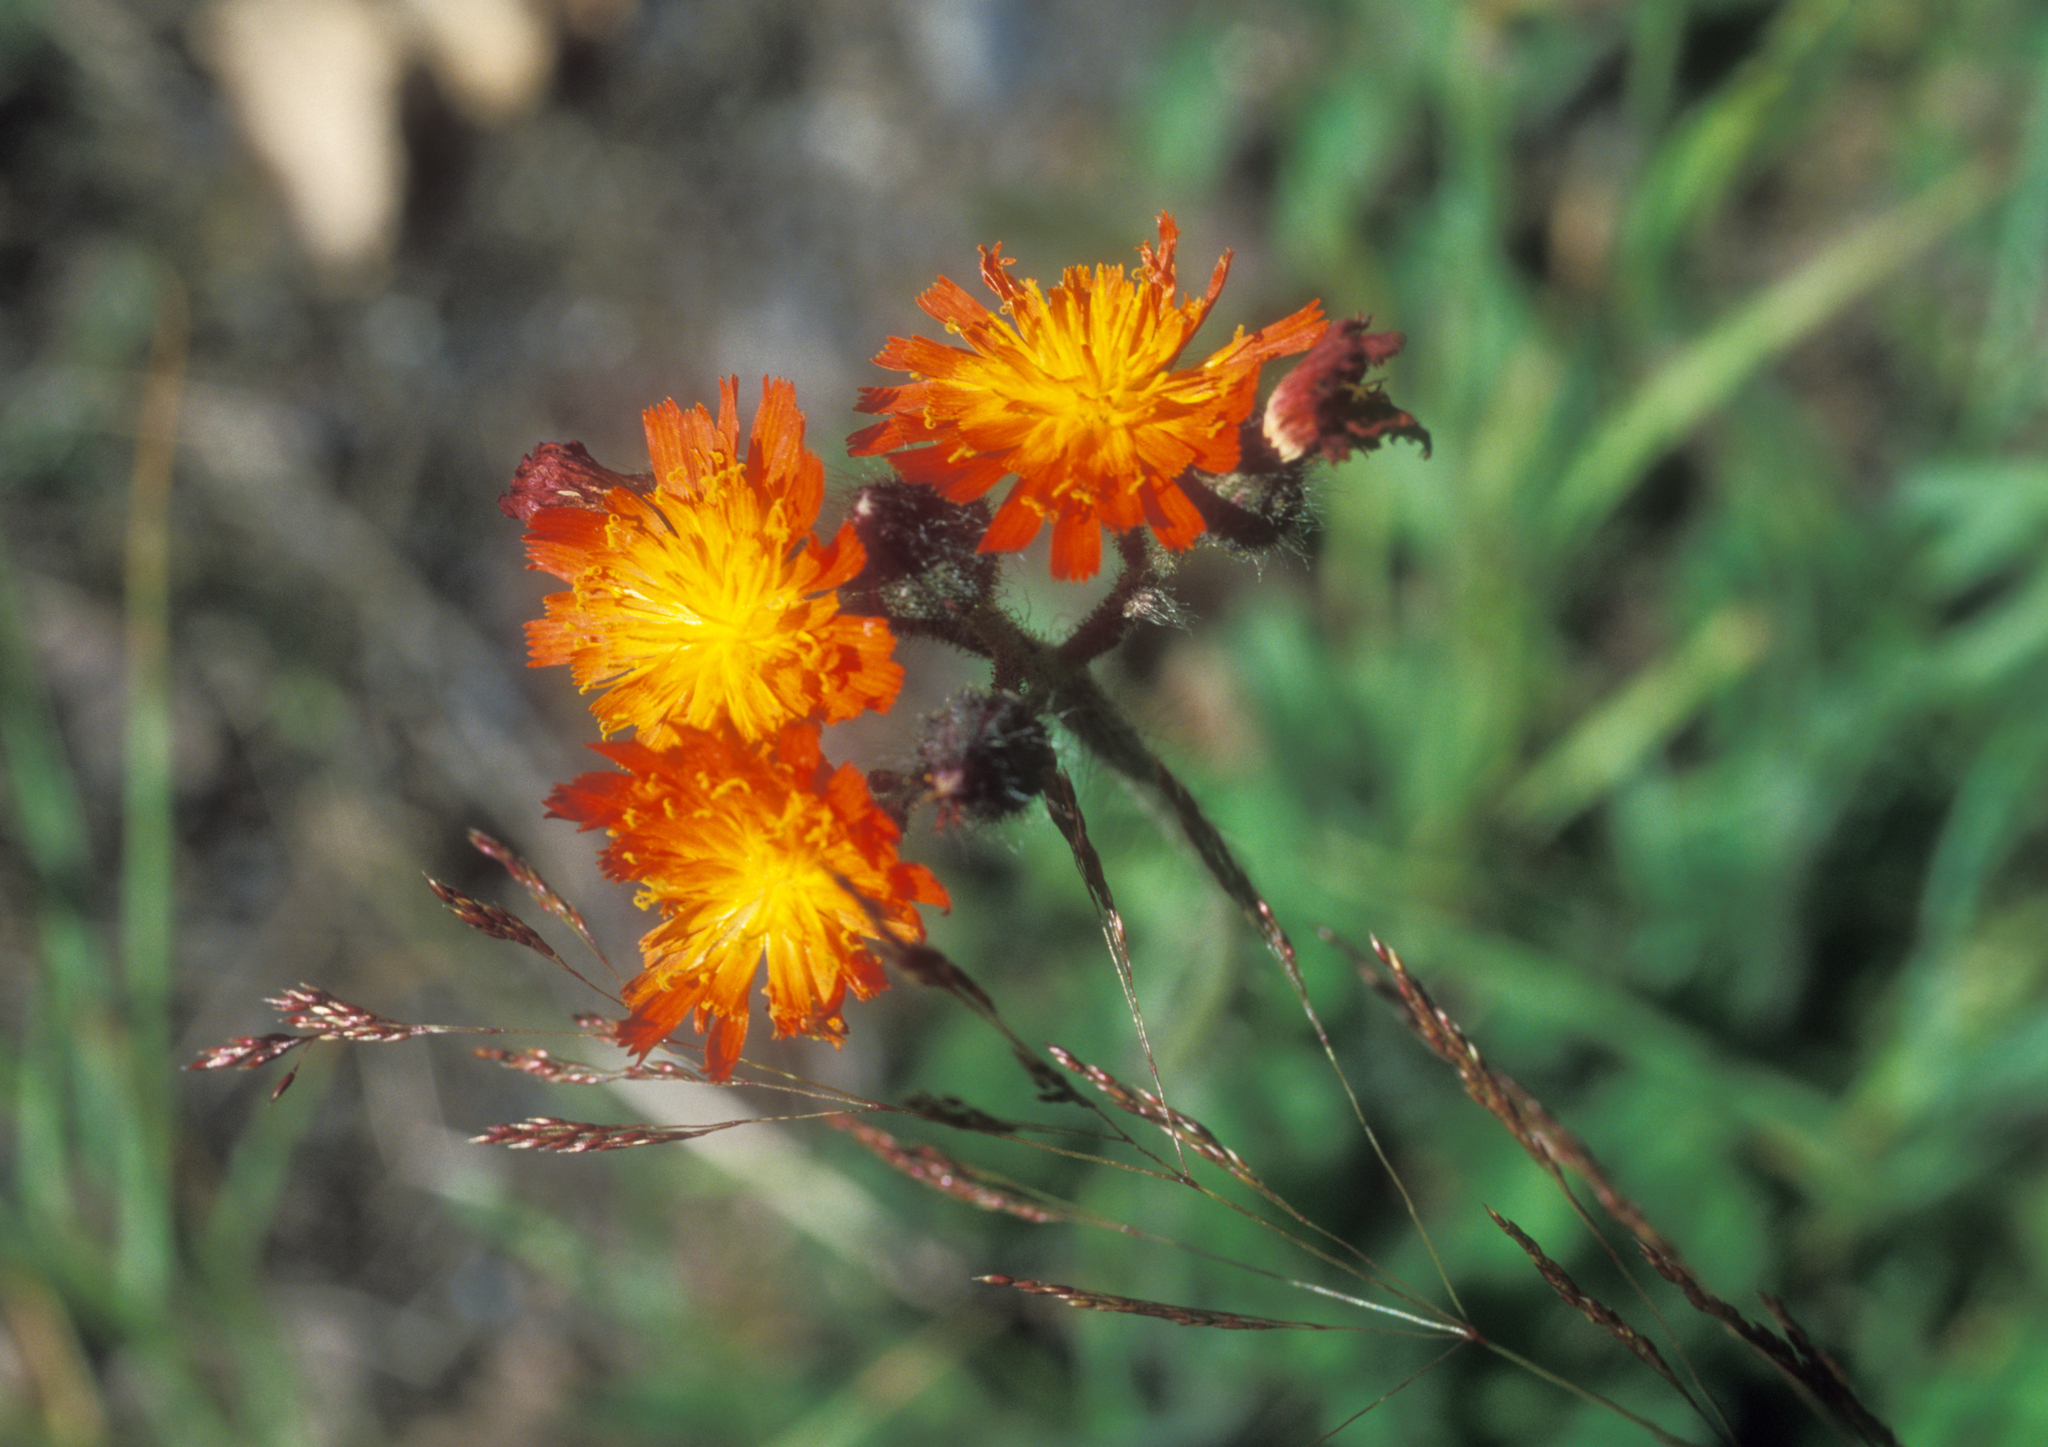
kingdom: Plantae
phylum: Tracheophyta
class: Magnoliopsida
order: Asterales
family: Asteraceae
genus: Pilosella
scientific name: Pilosella aurantiaca
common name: Fox-and-cubs
